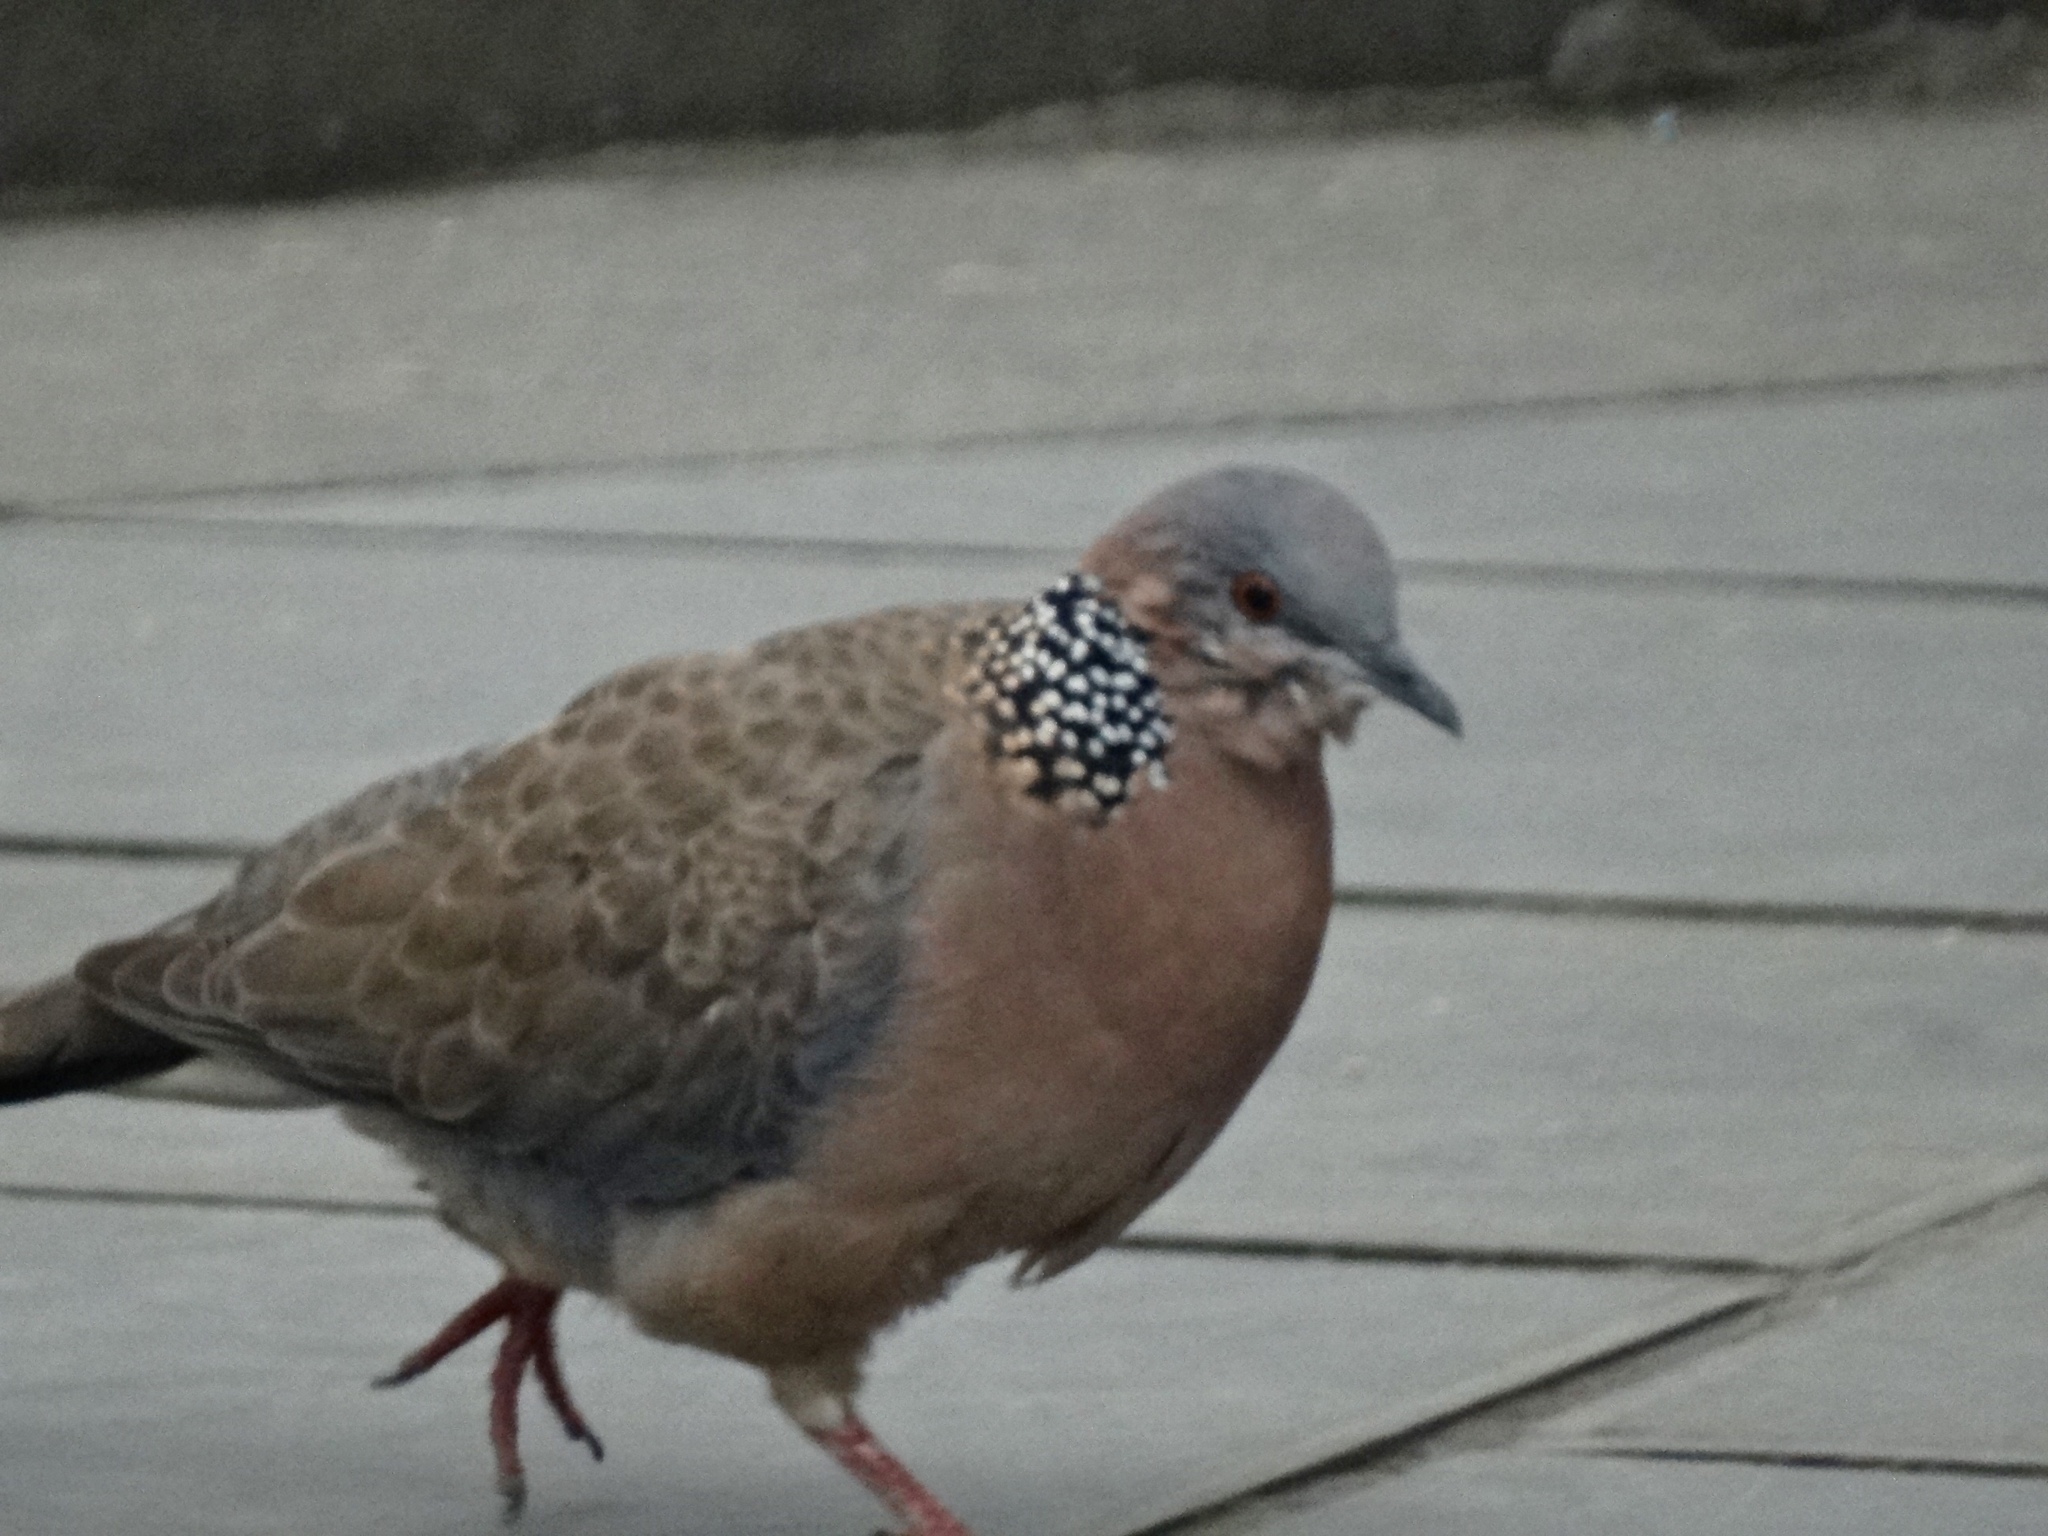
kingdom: Animalia
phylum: Chordata
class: Aves
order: Columbiformes
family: Columbidae
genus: Spilopelia
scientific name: Spilopelia chinensis
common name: Spotted dove
